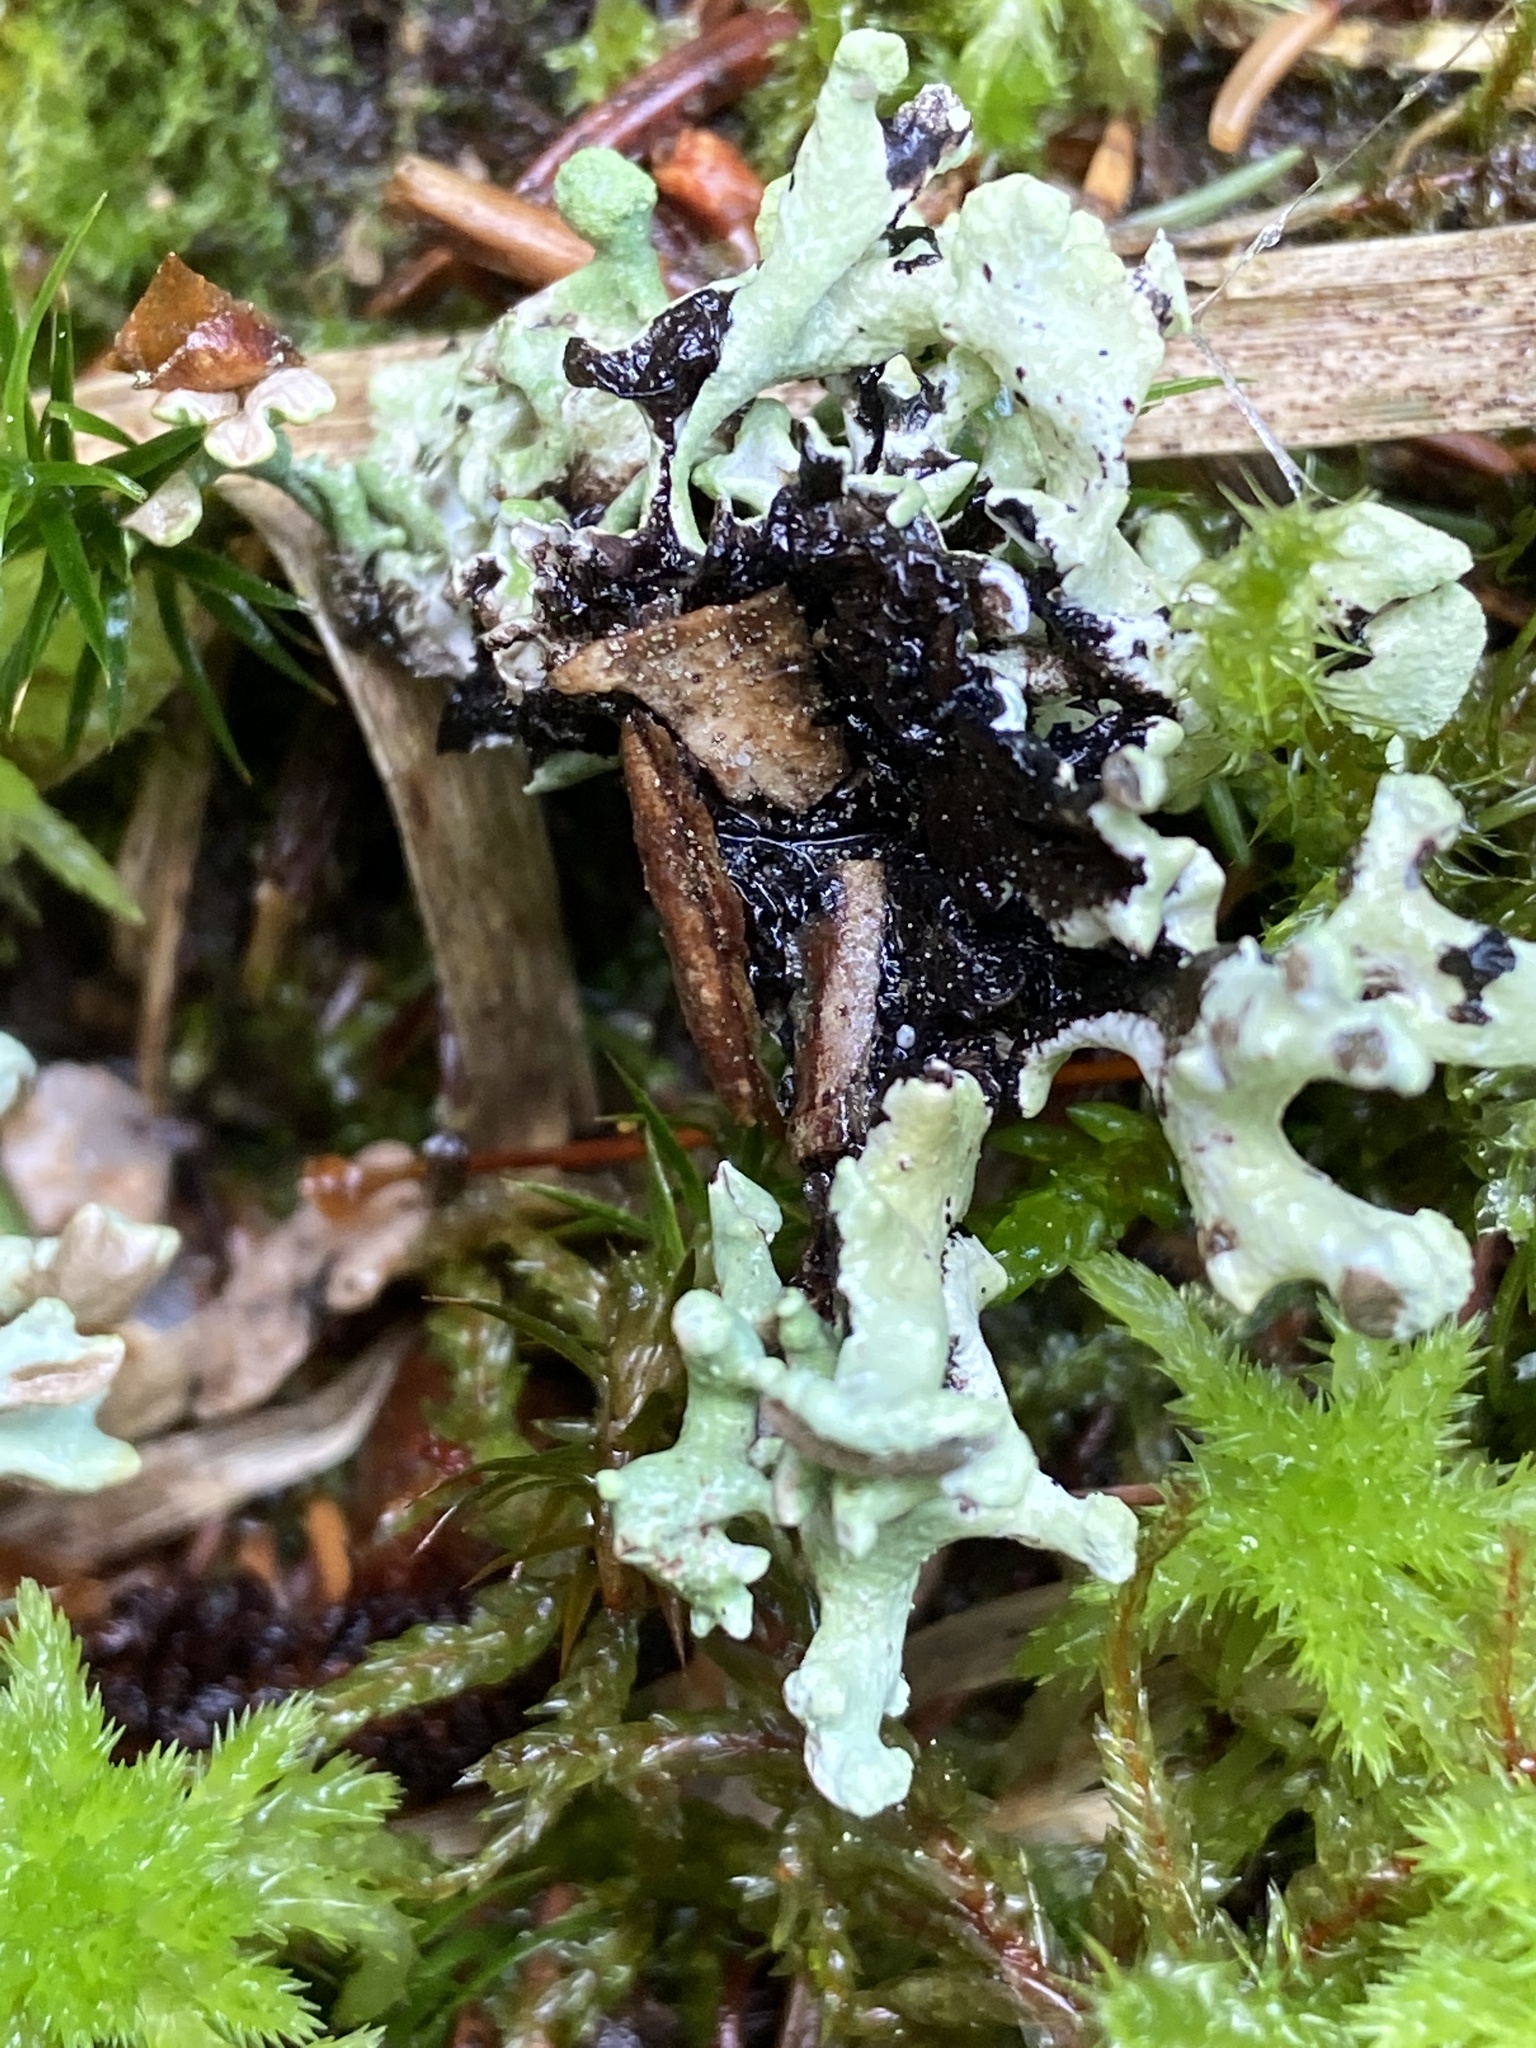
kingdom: Fungi
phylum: Ascomycota
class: Lecanoromycetes
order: Lecanorales
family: Parmeliaceae
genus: Hypogymnia
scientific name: Hypogymnia tubulosa
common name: Powder-headed tube lichen
